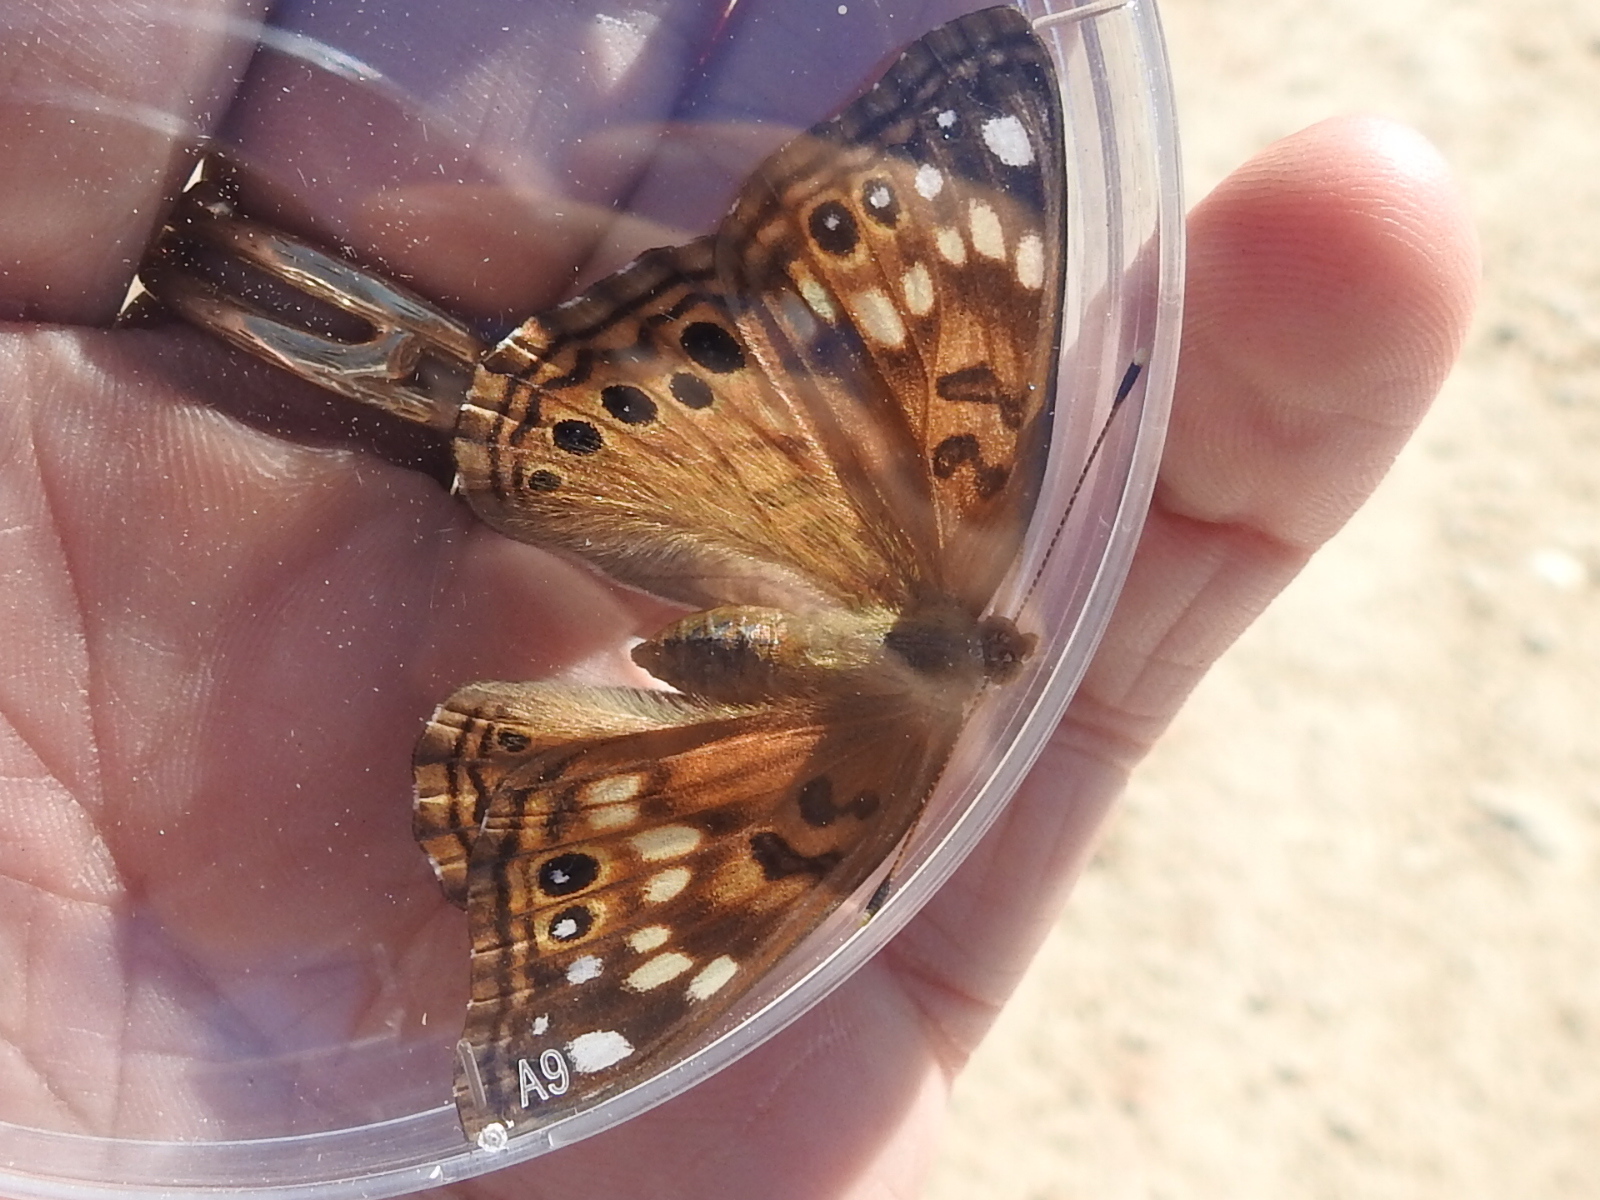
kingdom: Animalia
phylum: Arthropoda
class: Insecta
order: Lepidoptera
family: Nymphalidae
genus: Asterocampa
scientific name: Asterocampa celtis
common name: Hackberry emperor
